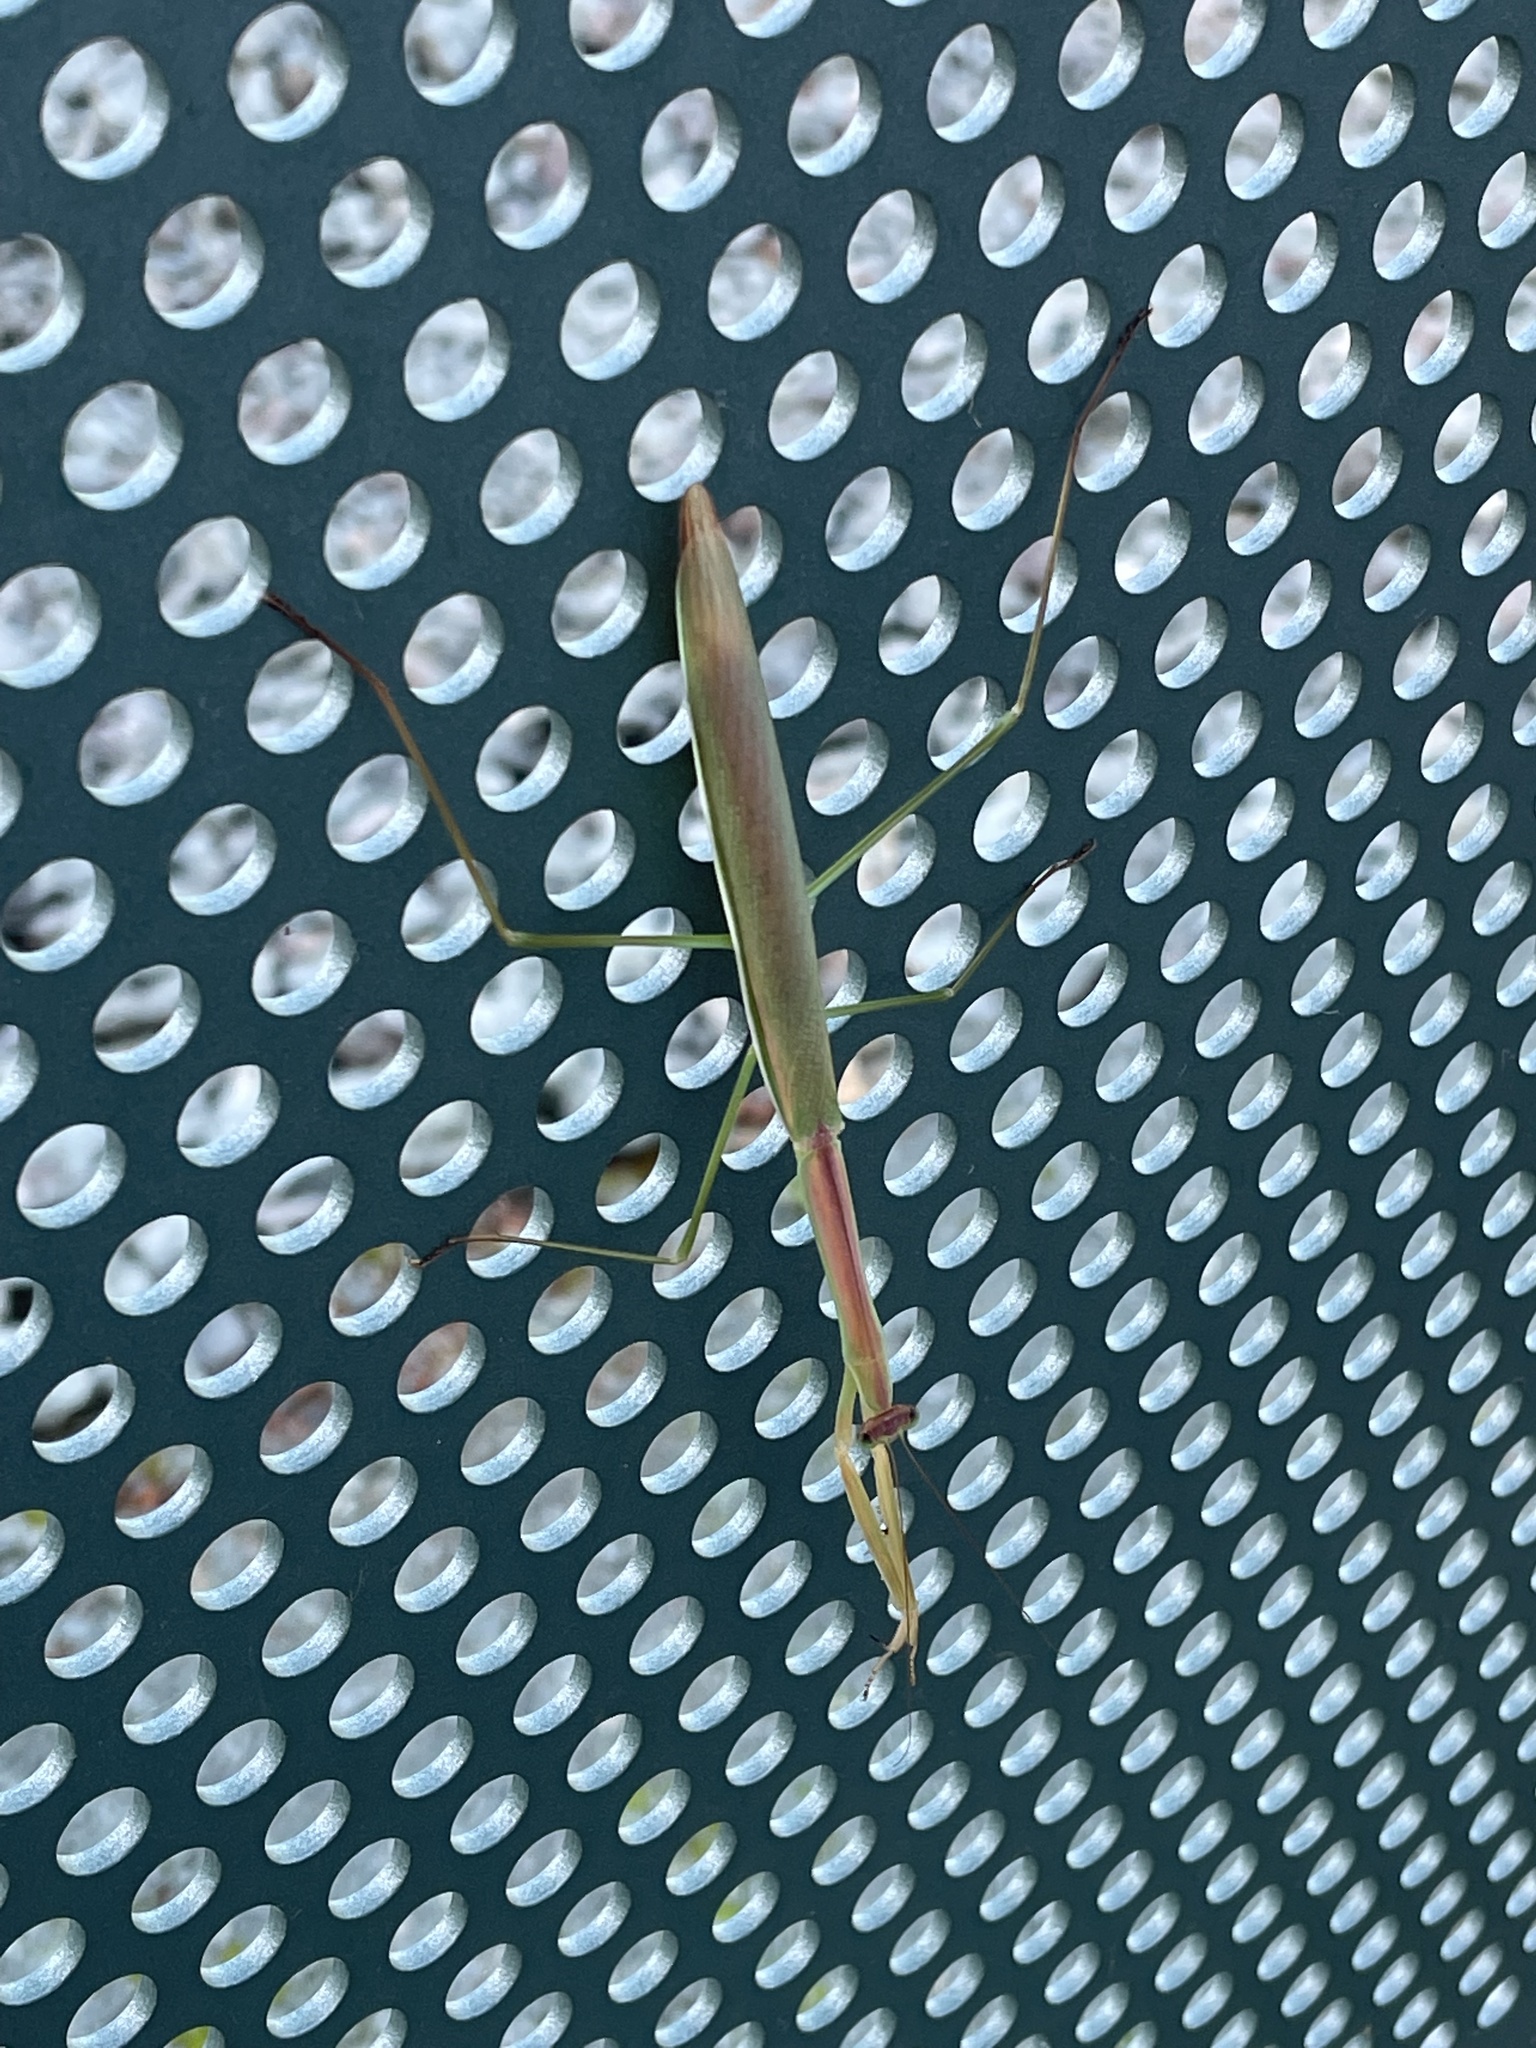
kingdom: Animalia
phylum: Arthropoda
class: Insecta
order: Mantodea
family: Mantidae
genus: Tenodera
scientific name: Tenodera
